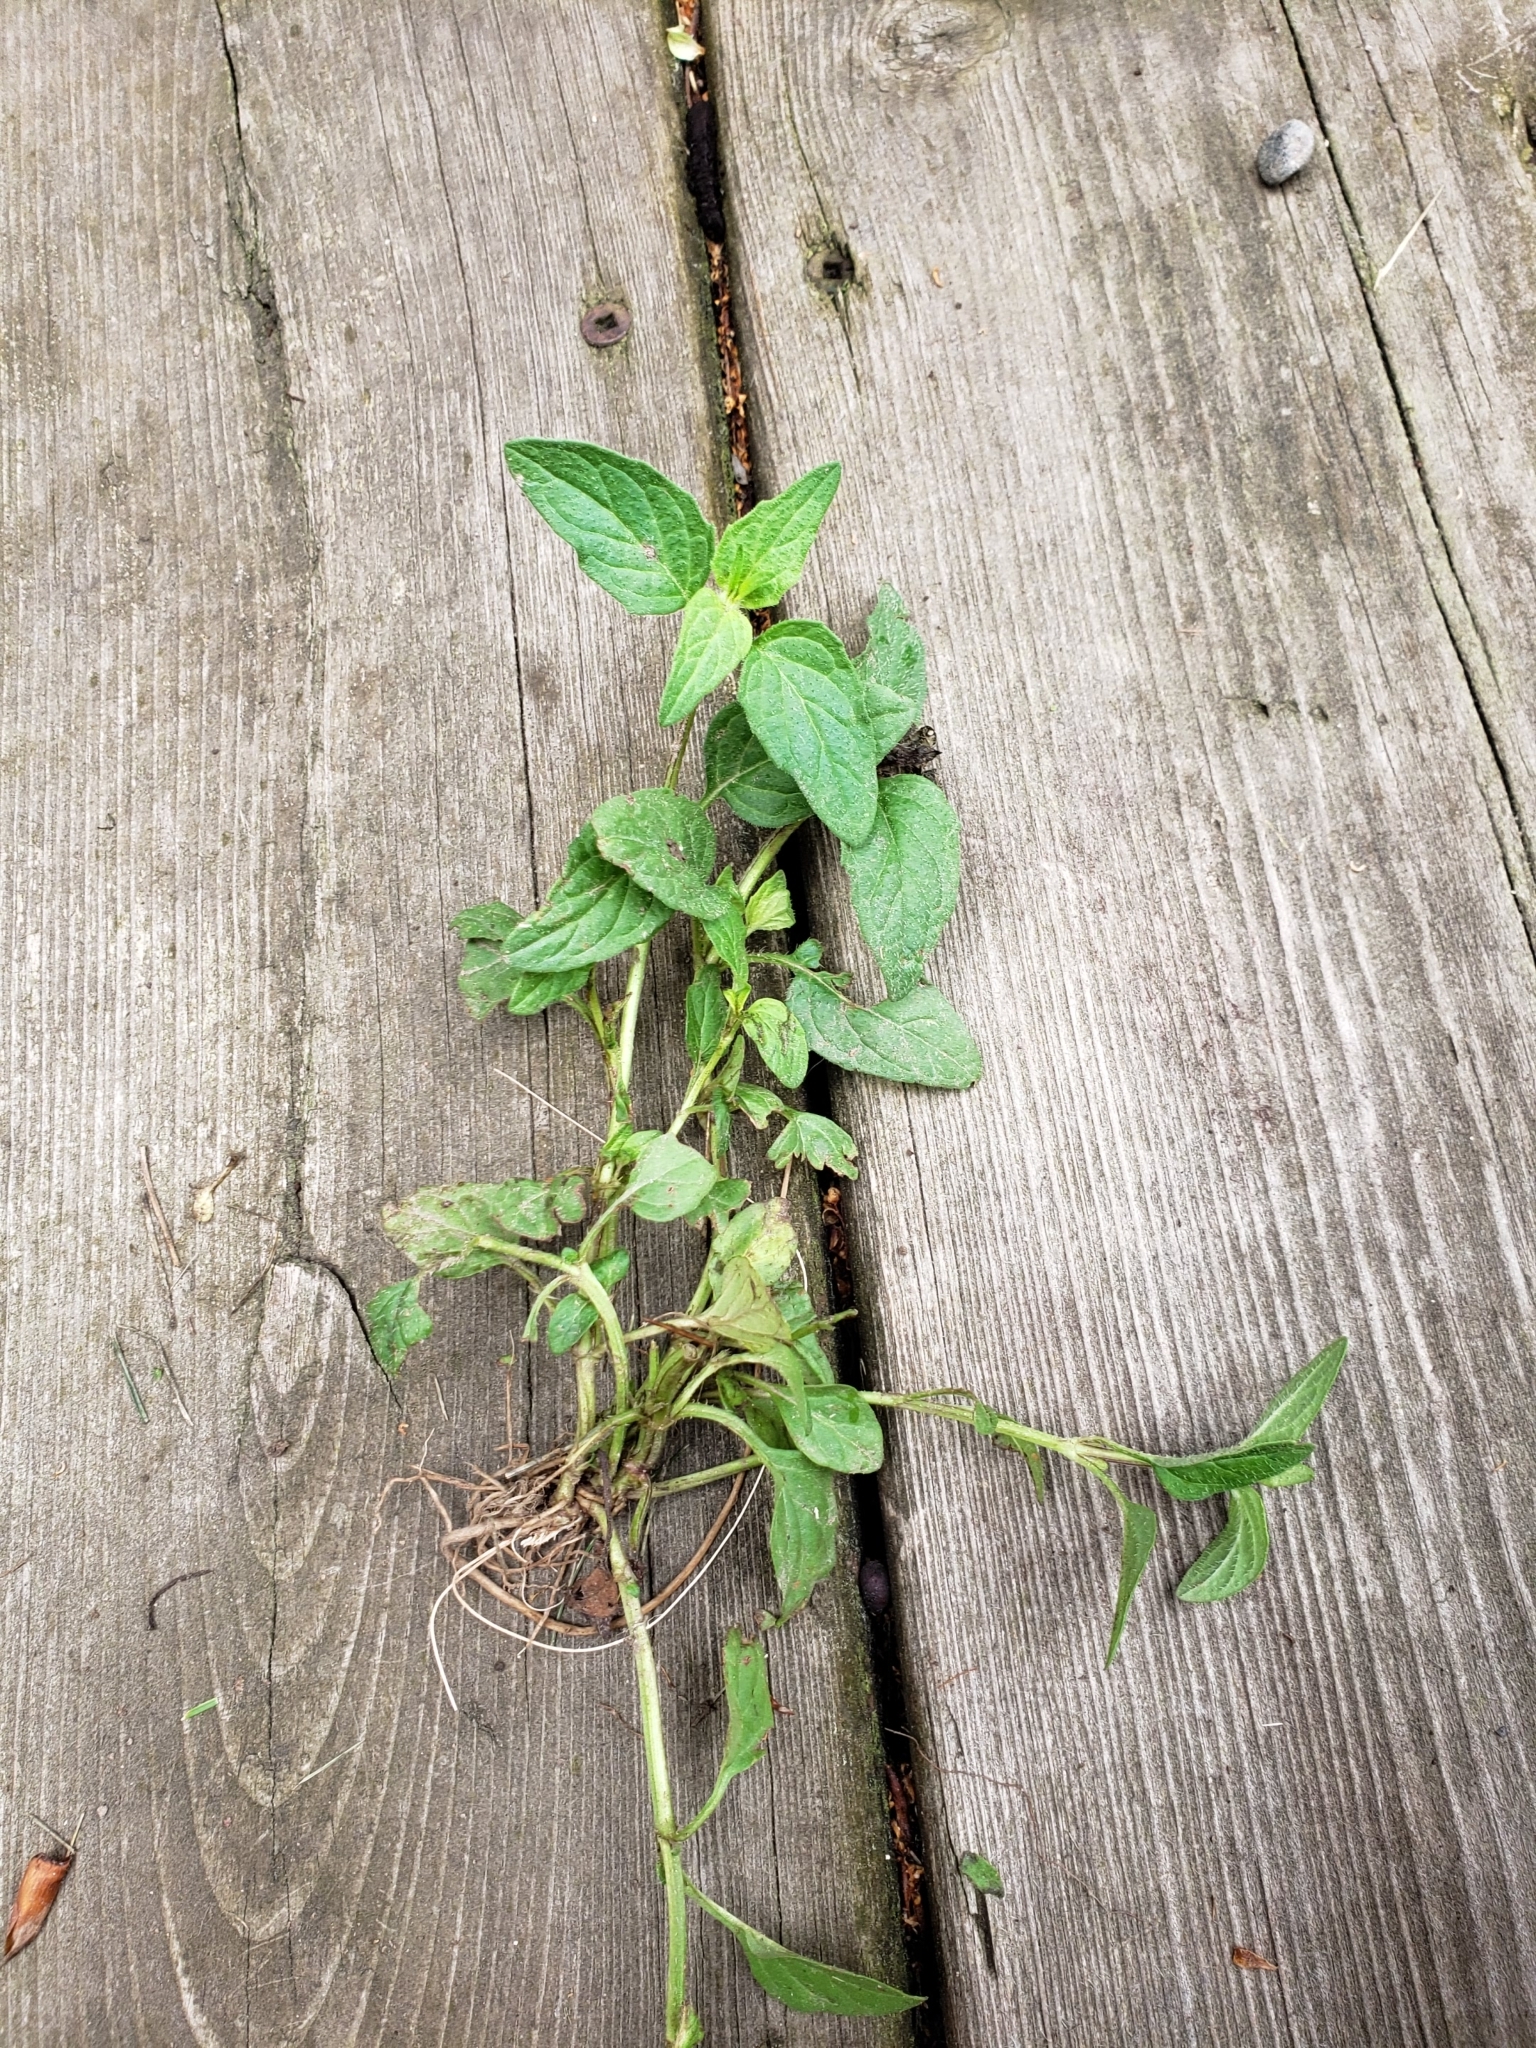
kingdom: Plantae
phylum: Tracheophyta
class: Magnoliopsida
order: Lamiales
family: Lamiaceae
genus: Prunella
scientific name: Prunella vulgaris
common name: Heal-all
